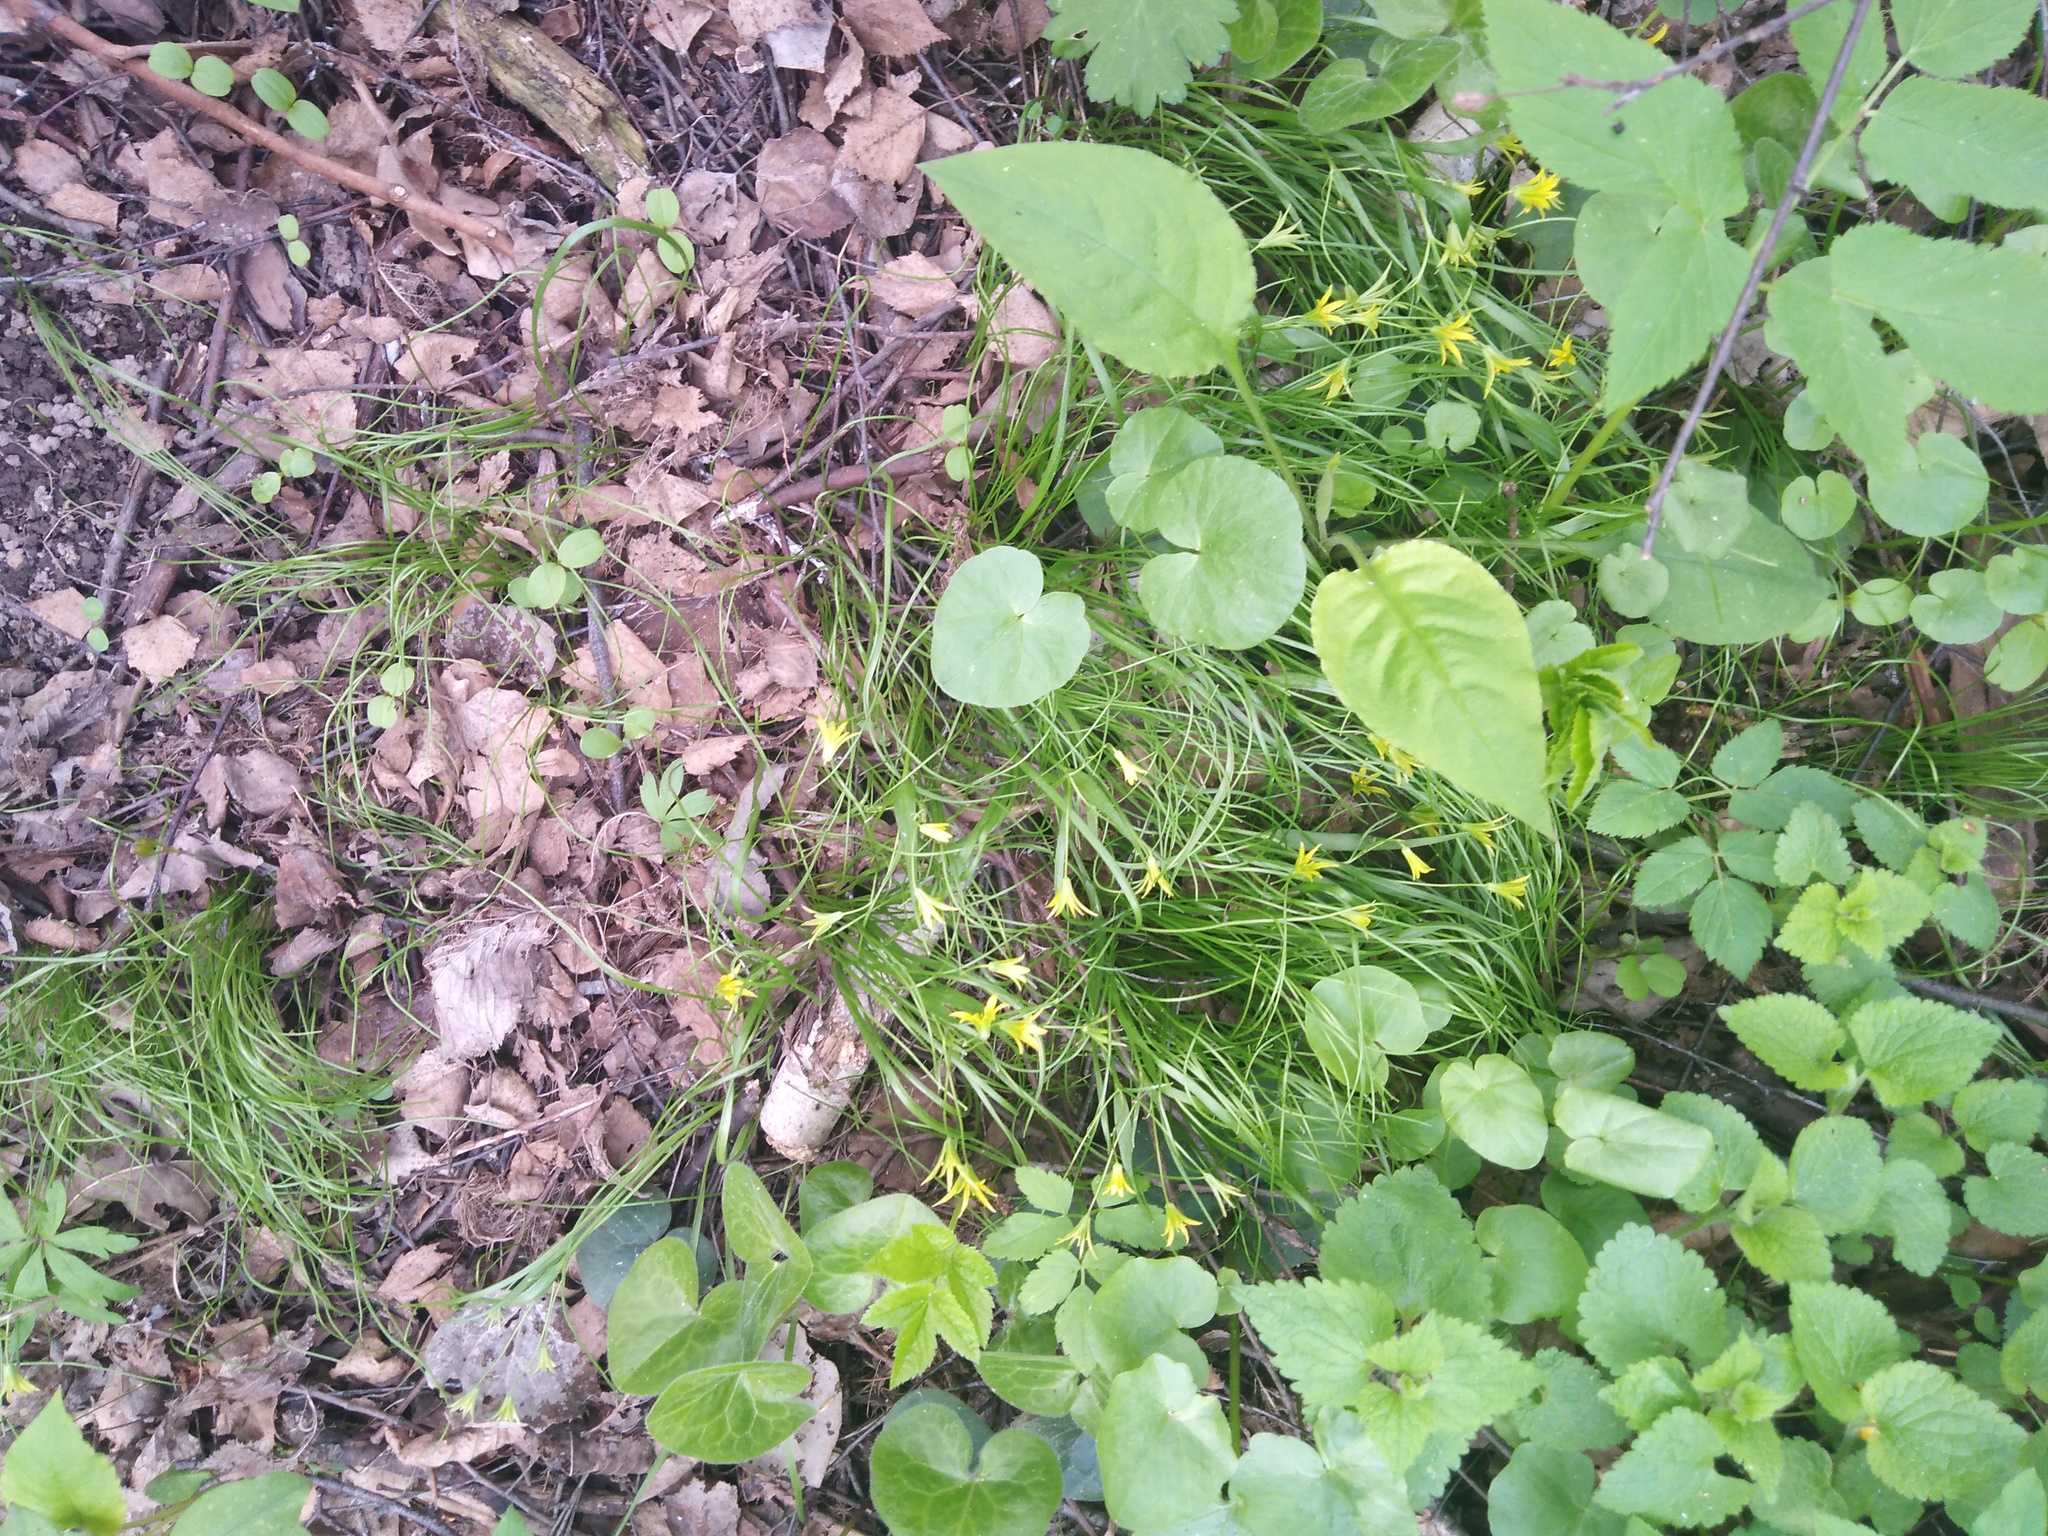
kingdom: Plantae
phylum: Tracheophyta
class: Liliopsida
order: Liliales
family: Liliaceae
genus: Gagea
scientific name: Gagea minima
